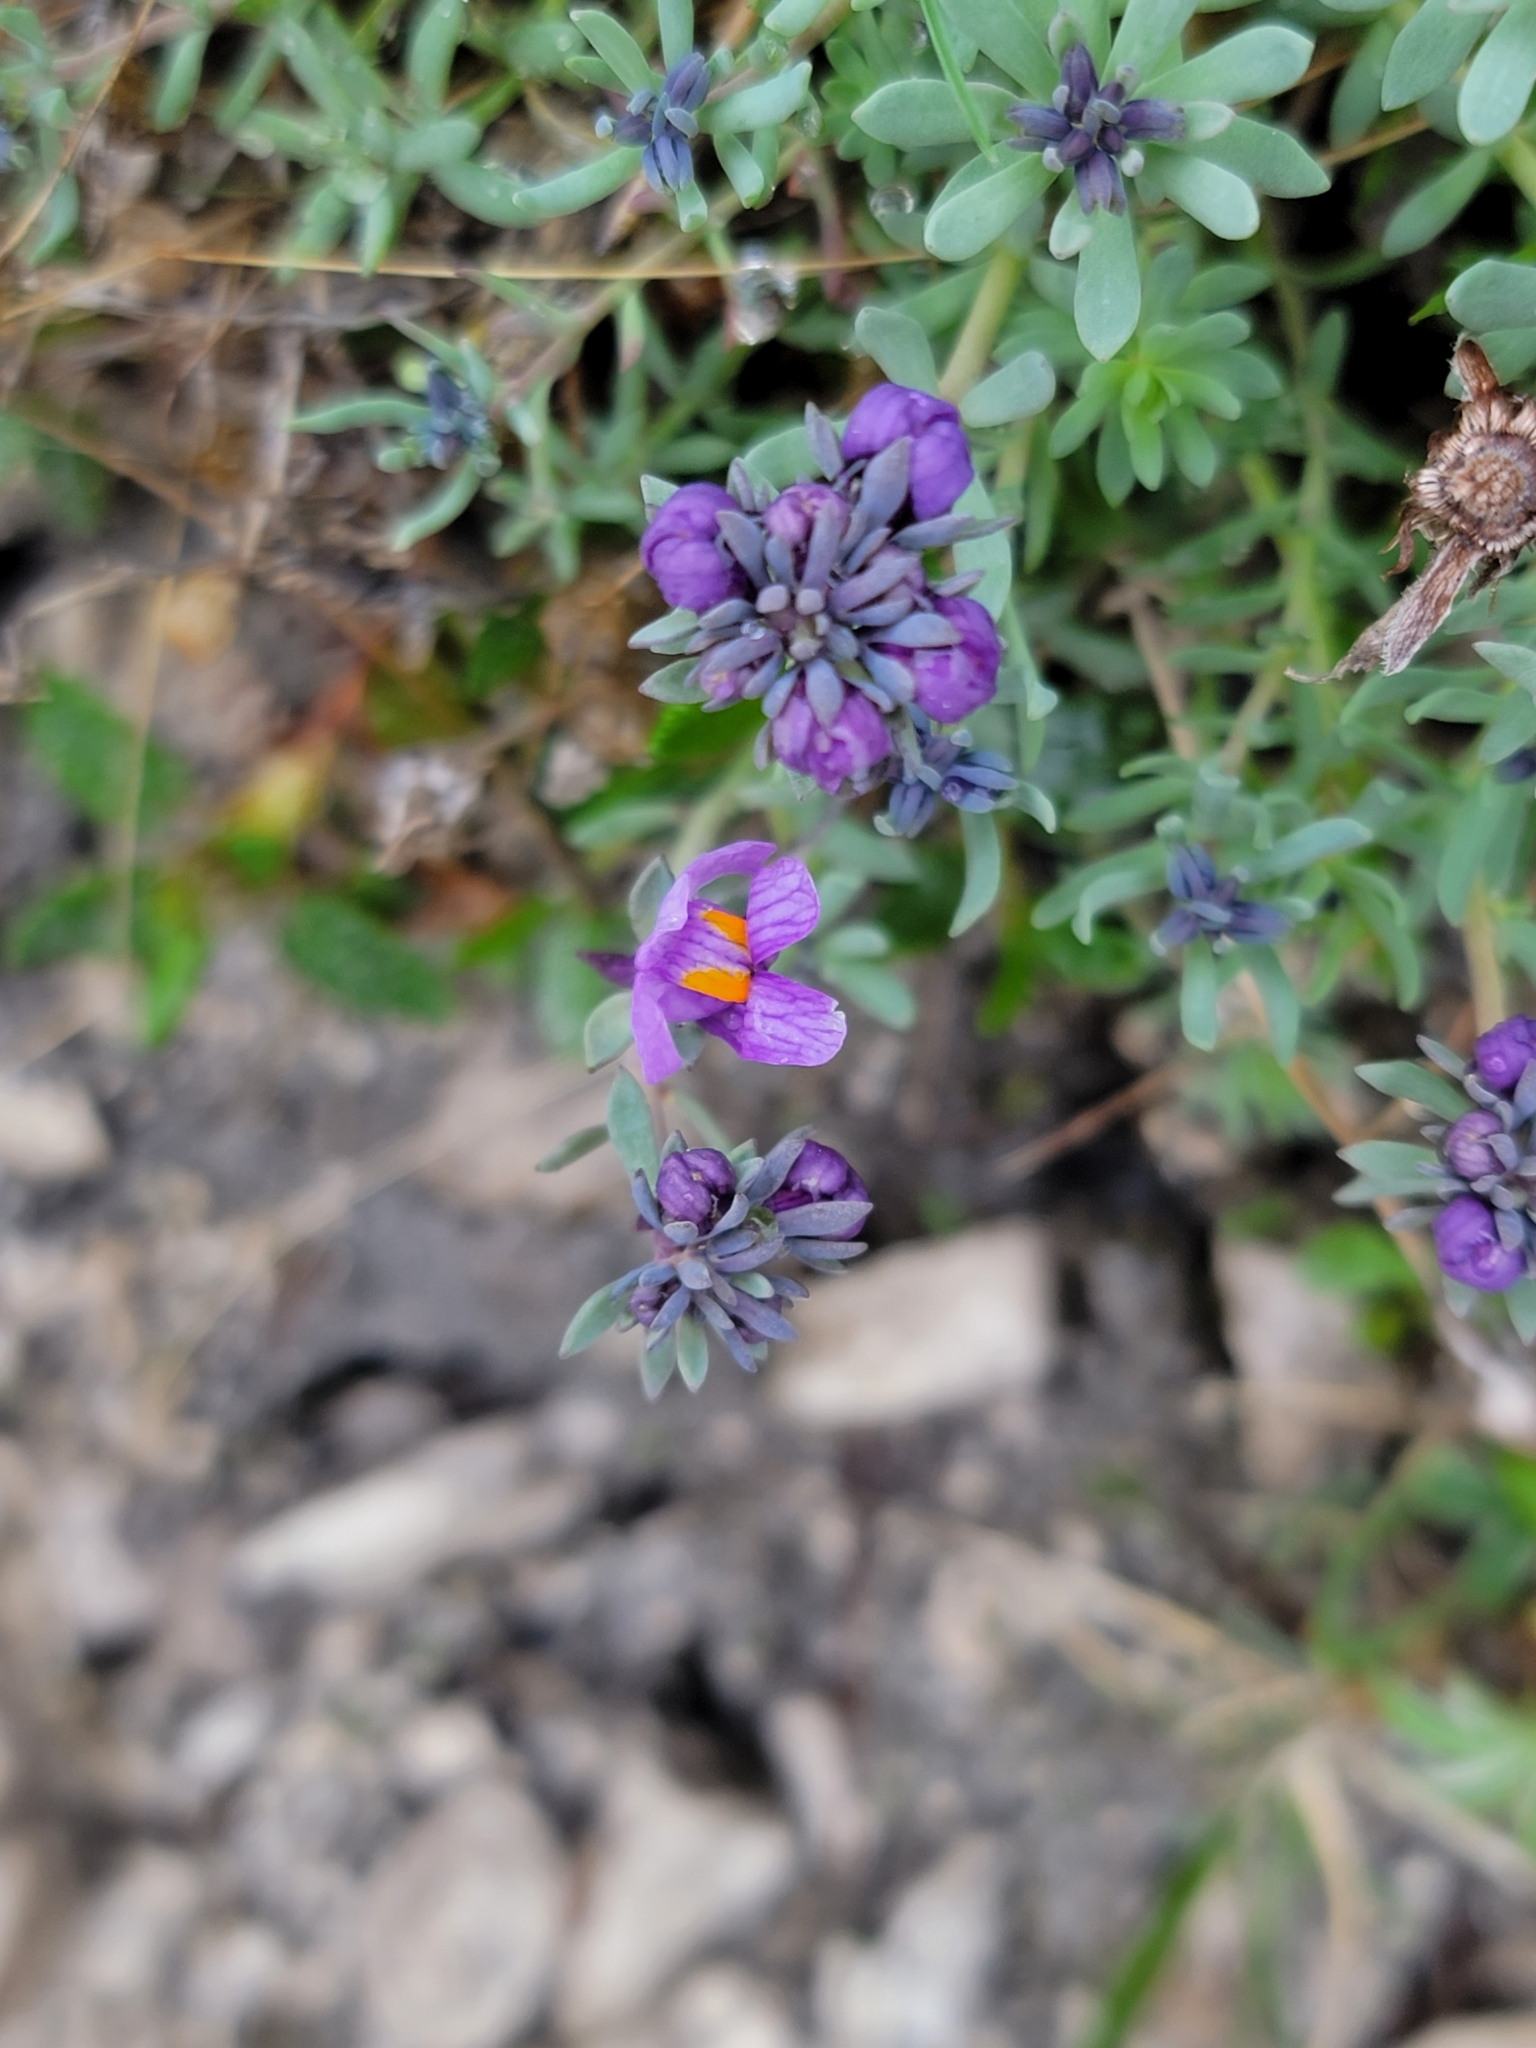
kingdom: Plantae
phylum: Tracheophyta
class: Magnoliopsida
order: Lamiales
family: Plantaginaceae
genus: Linaria
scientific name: Linaria alpina
